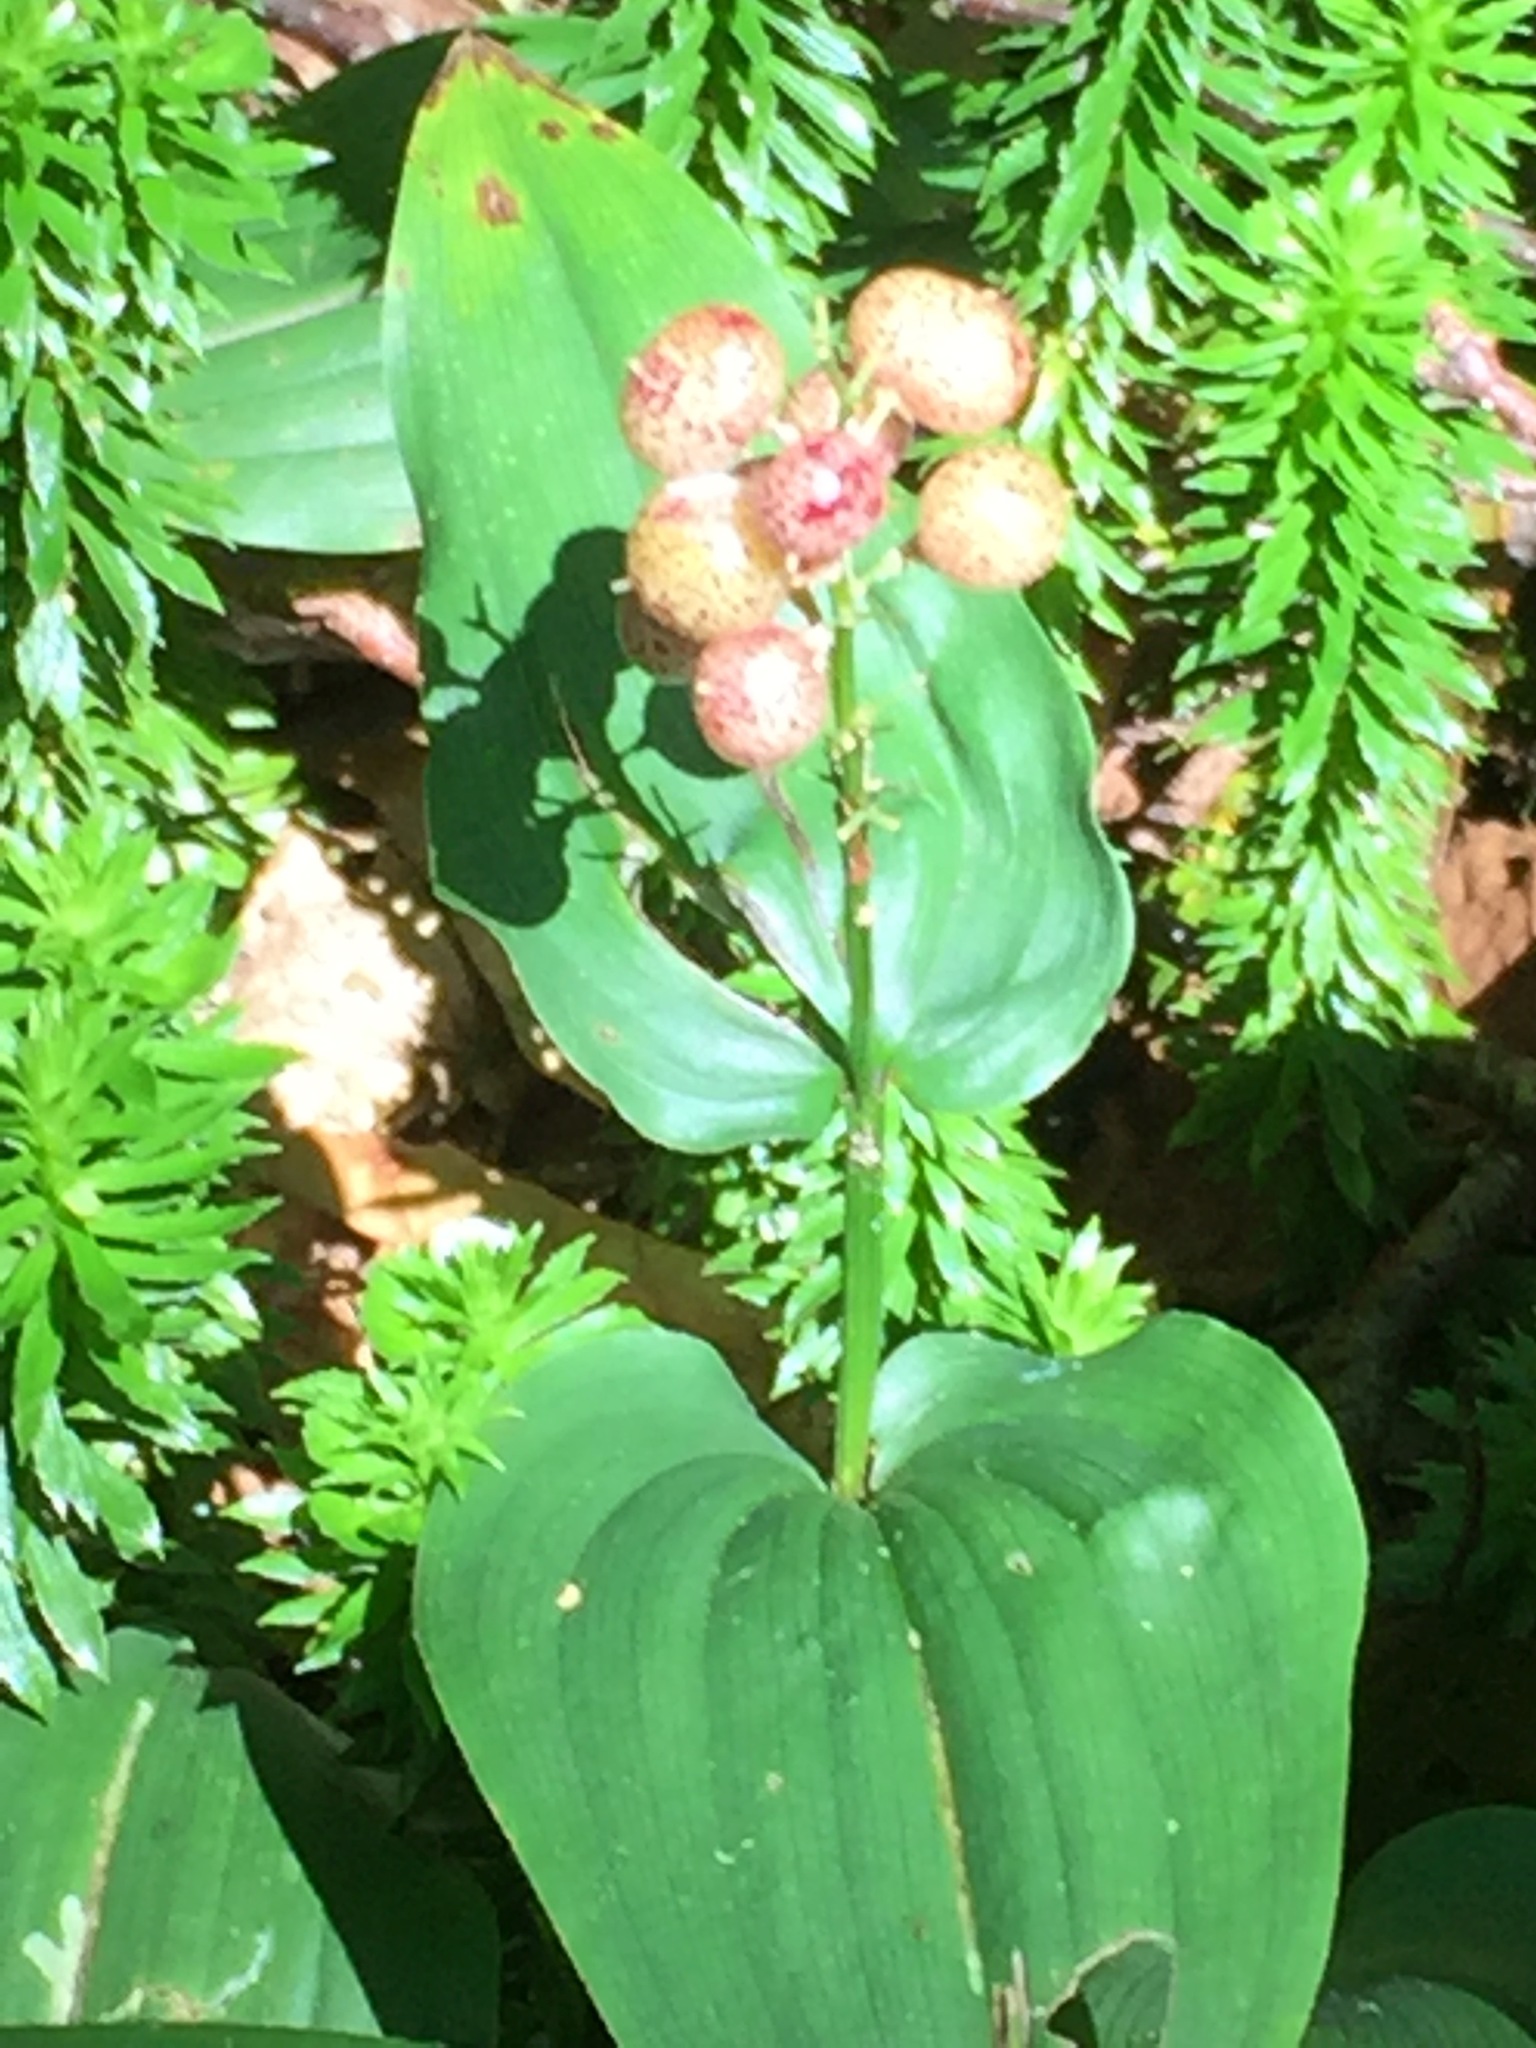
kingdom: Plantae
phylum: Tracheophyta
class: Liliopsida
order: Asparagales
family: Asparagaceae
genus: Maianthemum
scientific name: Maianthemum canadense
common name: False lily-of-the-valley
